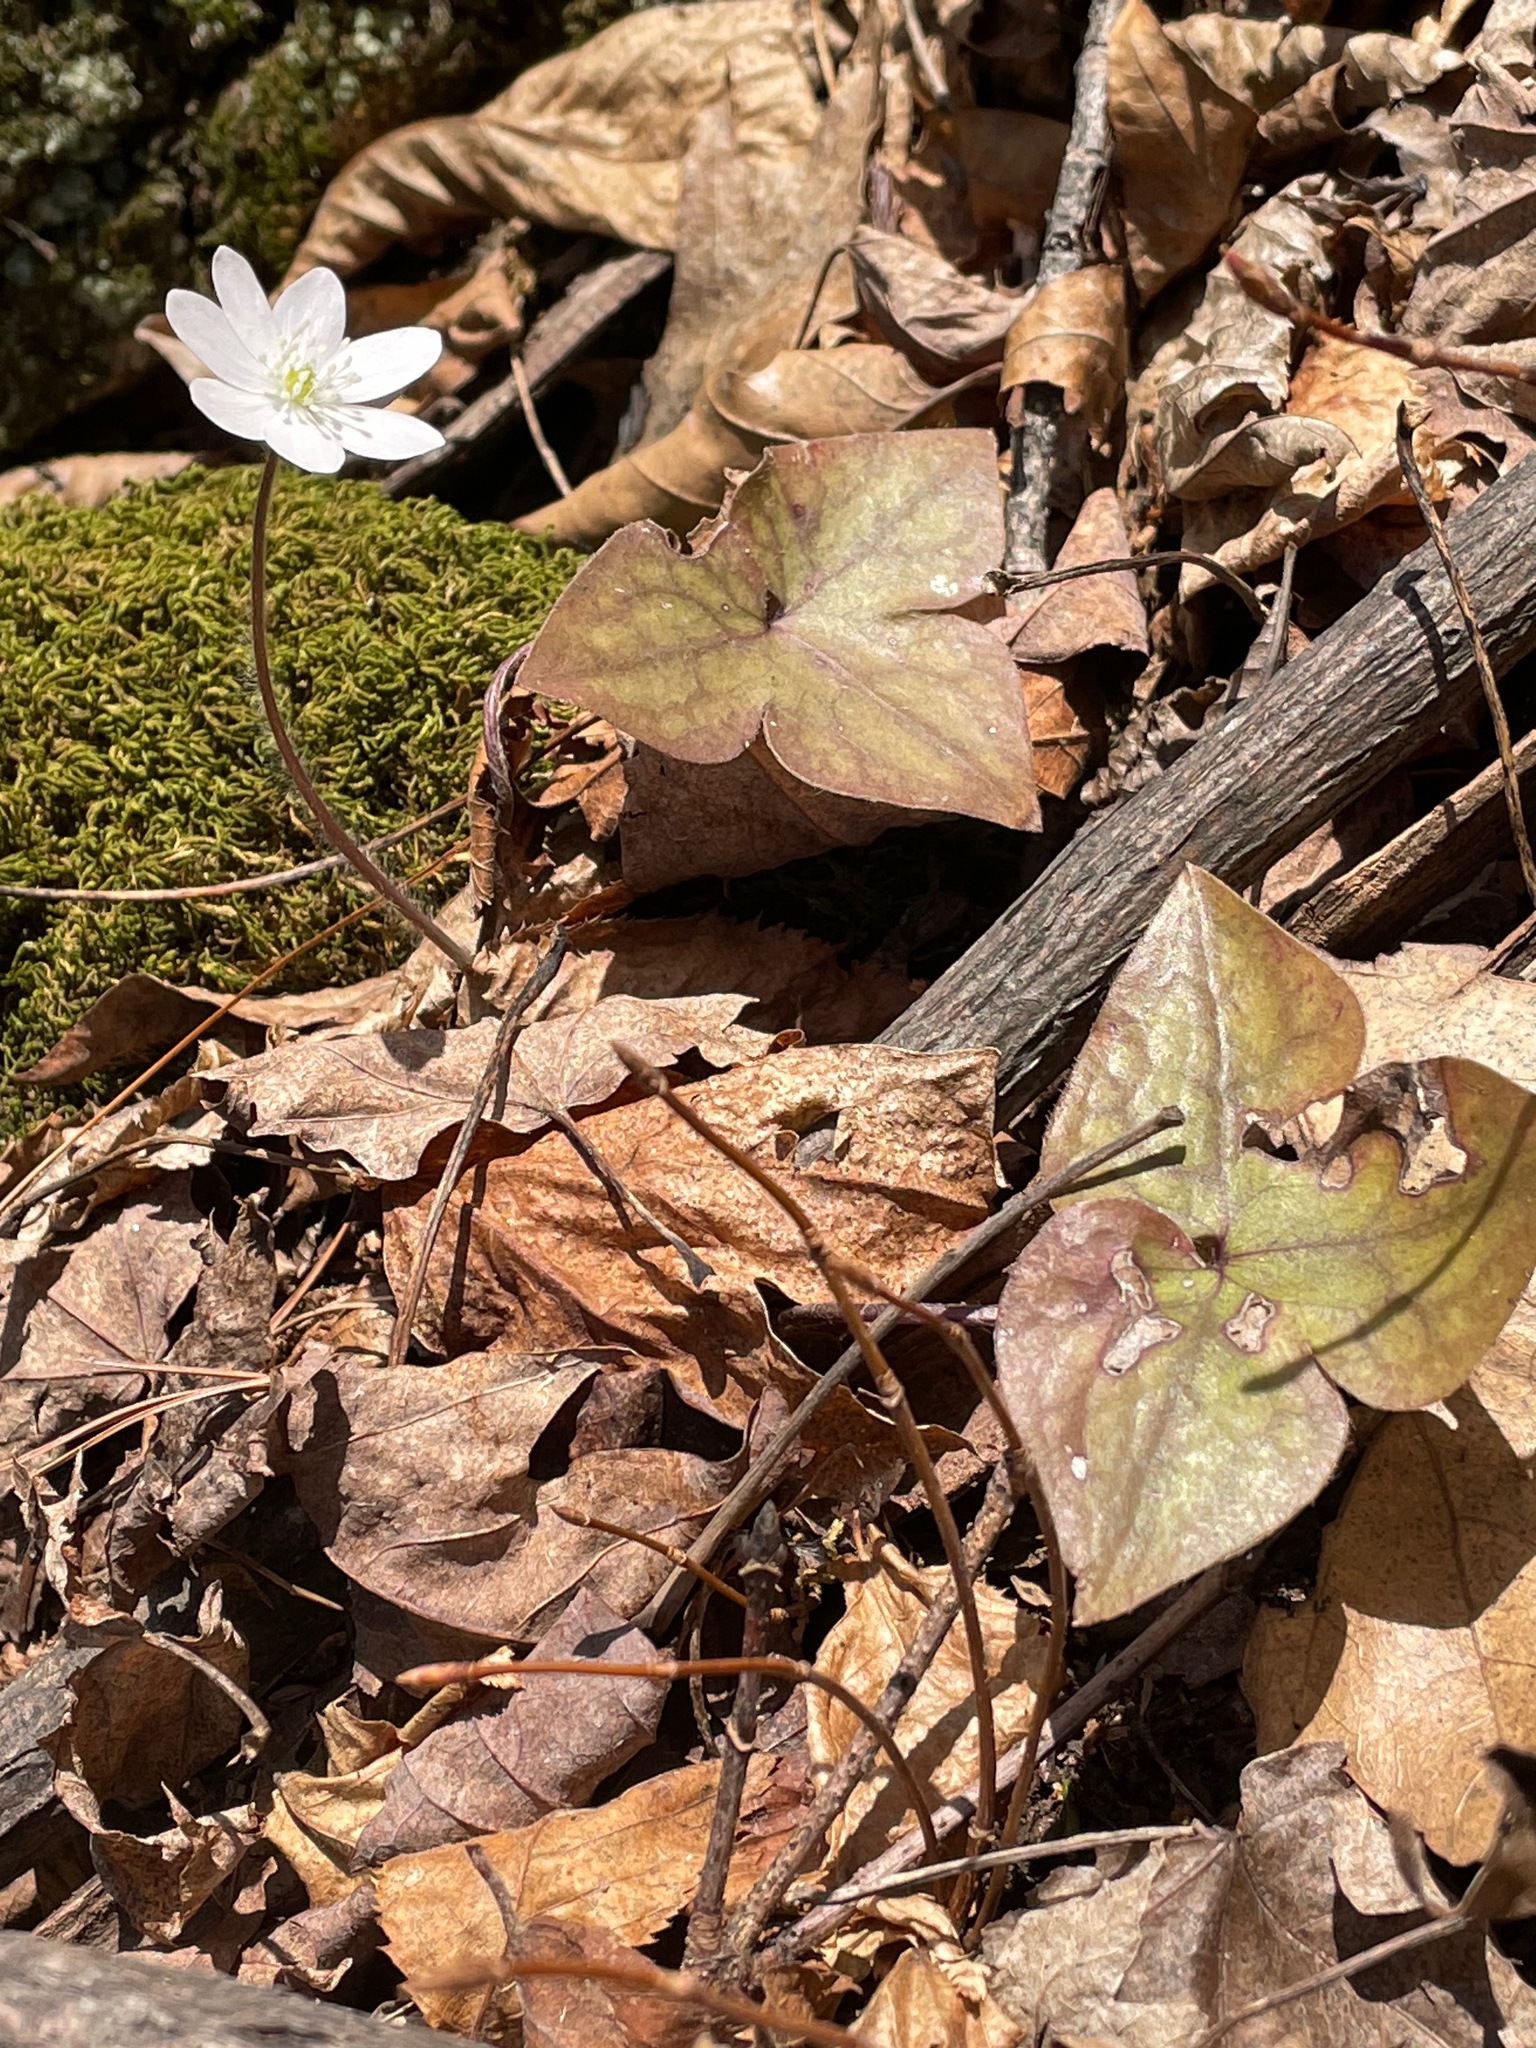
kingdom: Plantae
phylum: Tracheophyta
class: Magnoliopsida
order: Ranunculales
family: Ranunculaceae
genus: Hepatica
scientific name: Hepatica acutiloba
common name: Sharp-lobed hepatica
